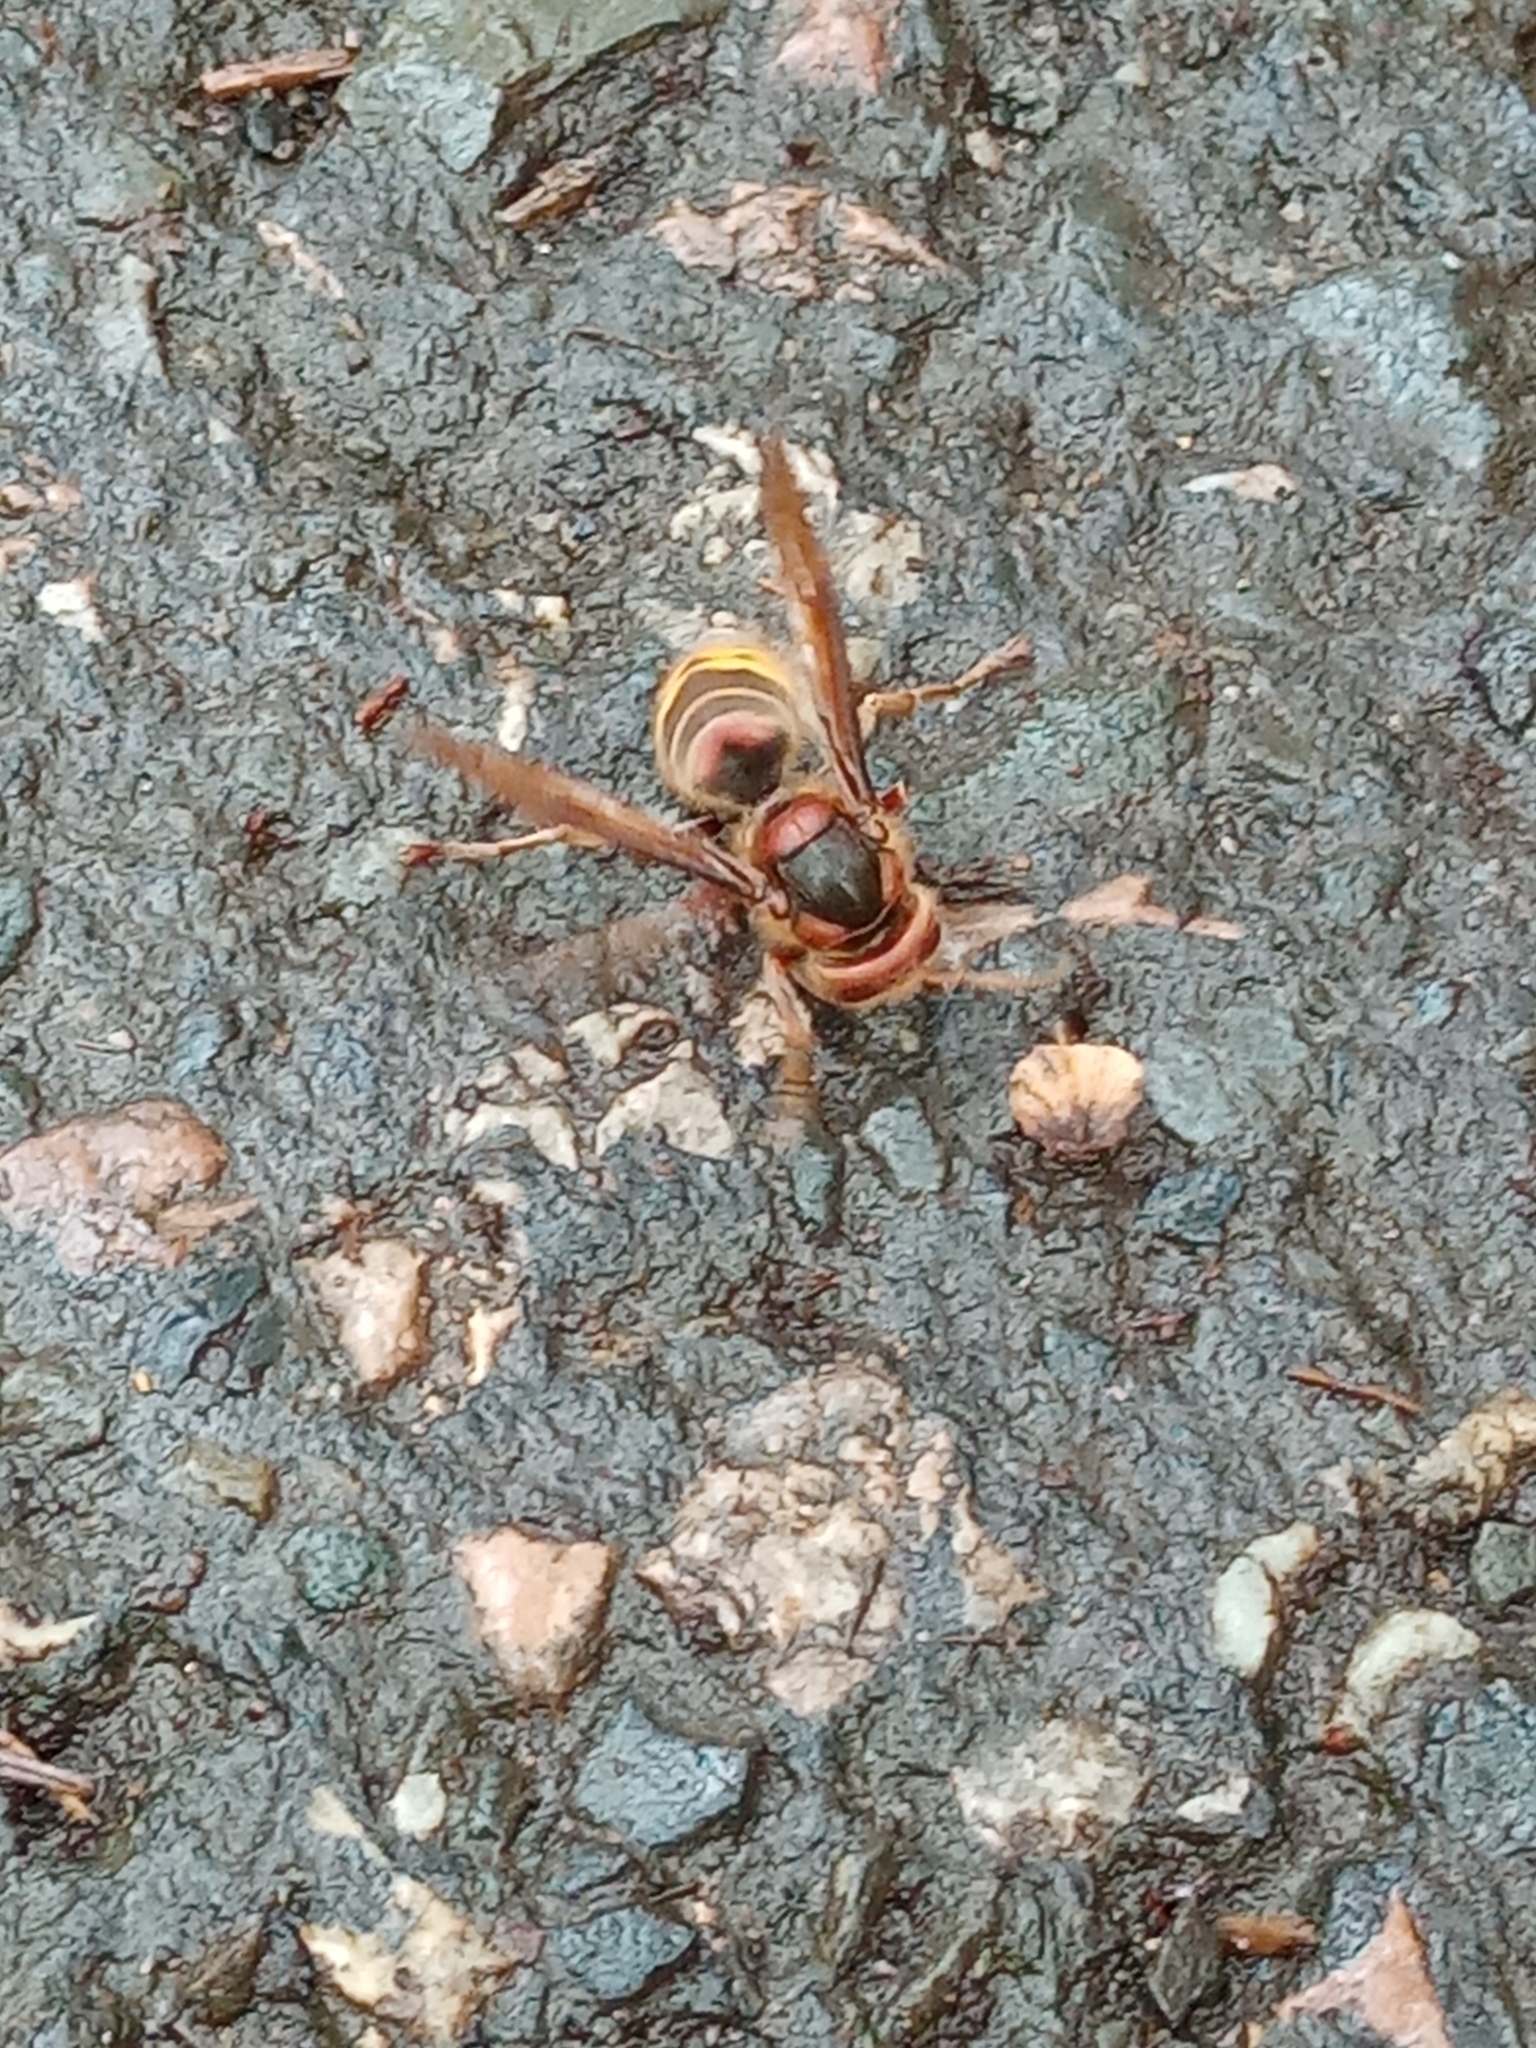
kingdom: Animalia
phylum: Arthropoda
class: Insecta
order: Hymenoptera
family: Vespidae
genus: Vespa
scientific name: Vespa crabro
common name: Hornet
